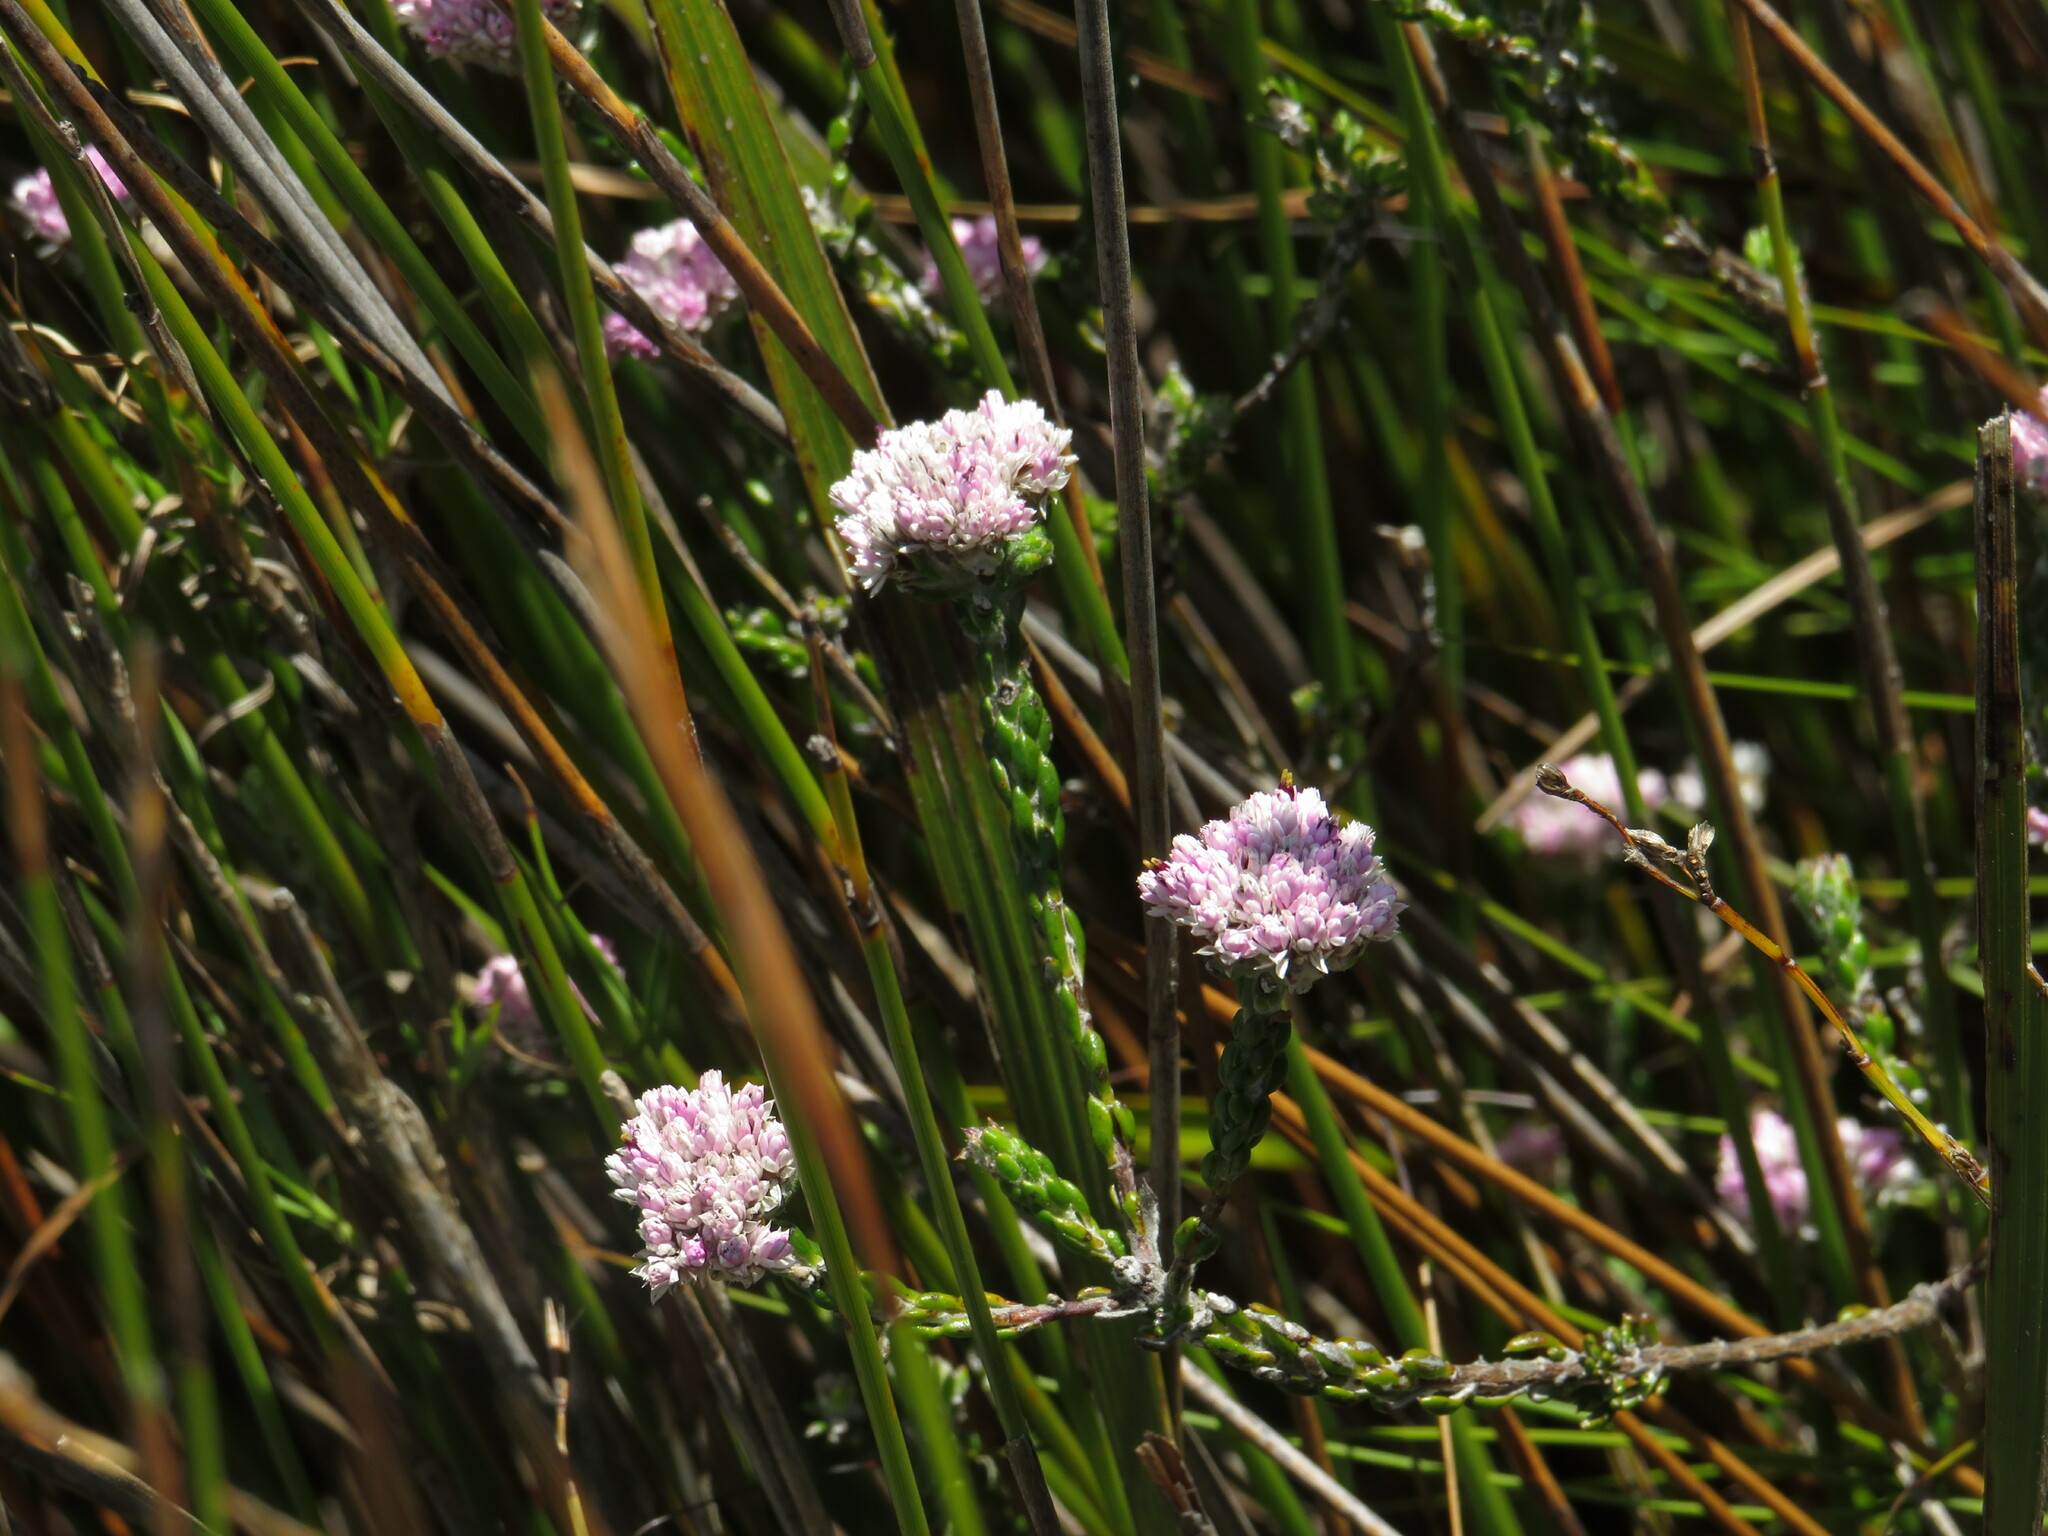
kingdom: Plantae
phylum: Tracheophyta
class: Magnoliopsida
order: Asterales
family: Asteraceae
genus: Metalasia
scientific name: Metalasia cymbifolia
